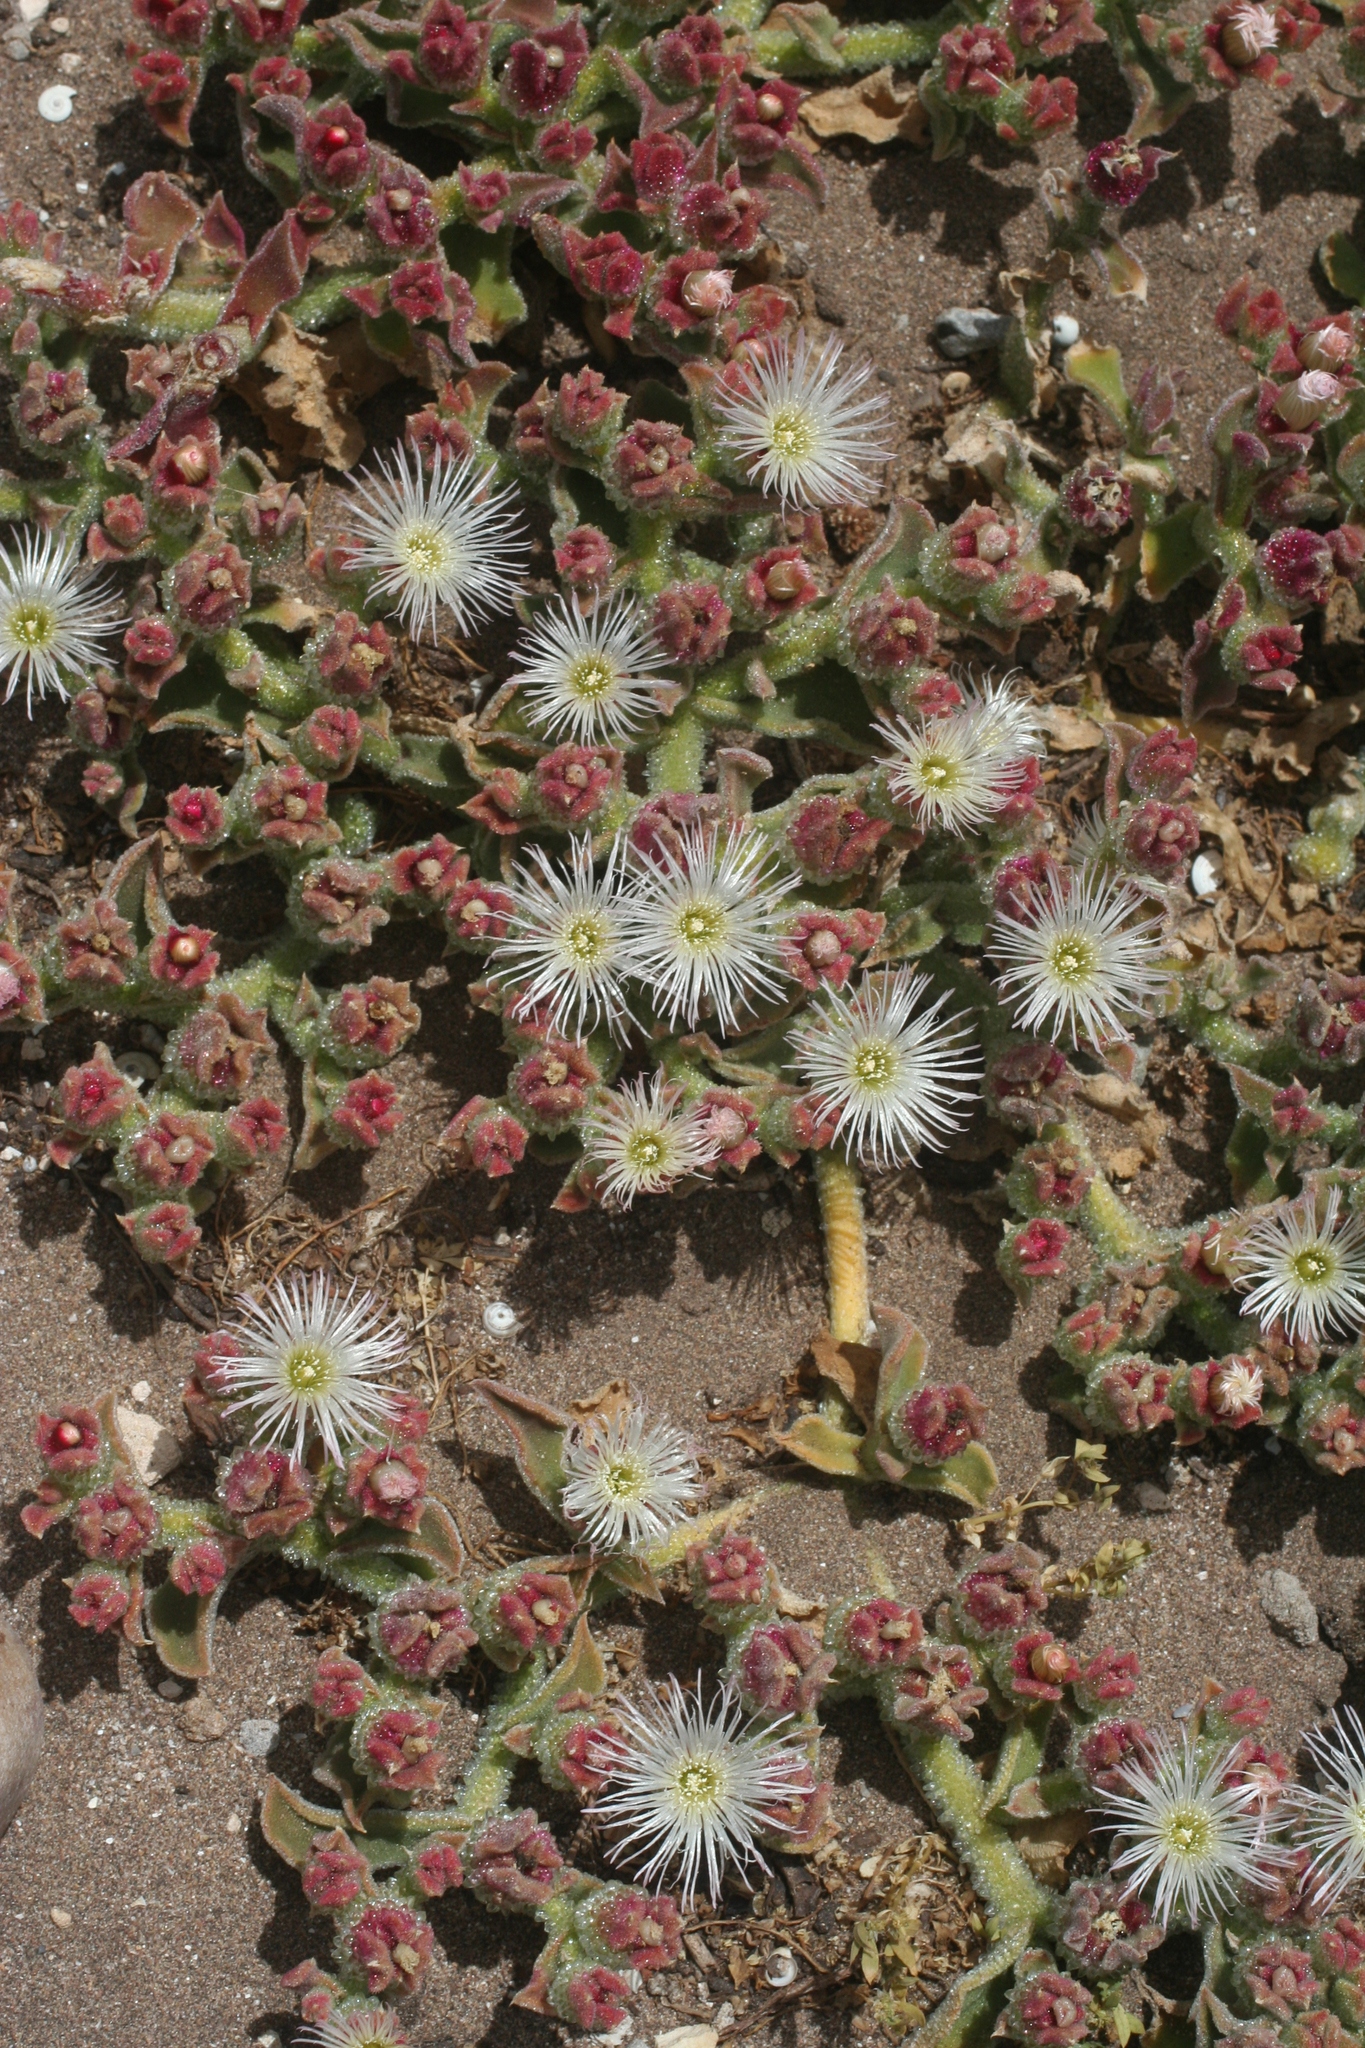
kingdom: Plantae
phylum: Tracheophyta
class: Magnoliopsida
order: Caryophyllales
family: Aizoaceae
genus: Mesembryanthemum
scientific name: Mesembryanthemum crystallinum
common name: Common iceplant
